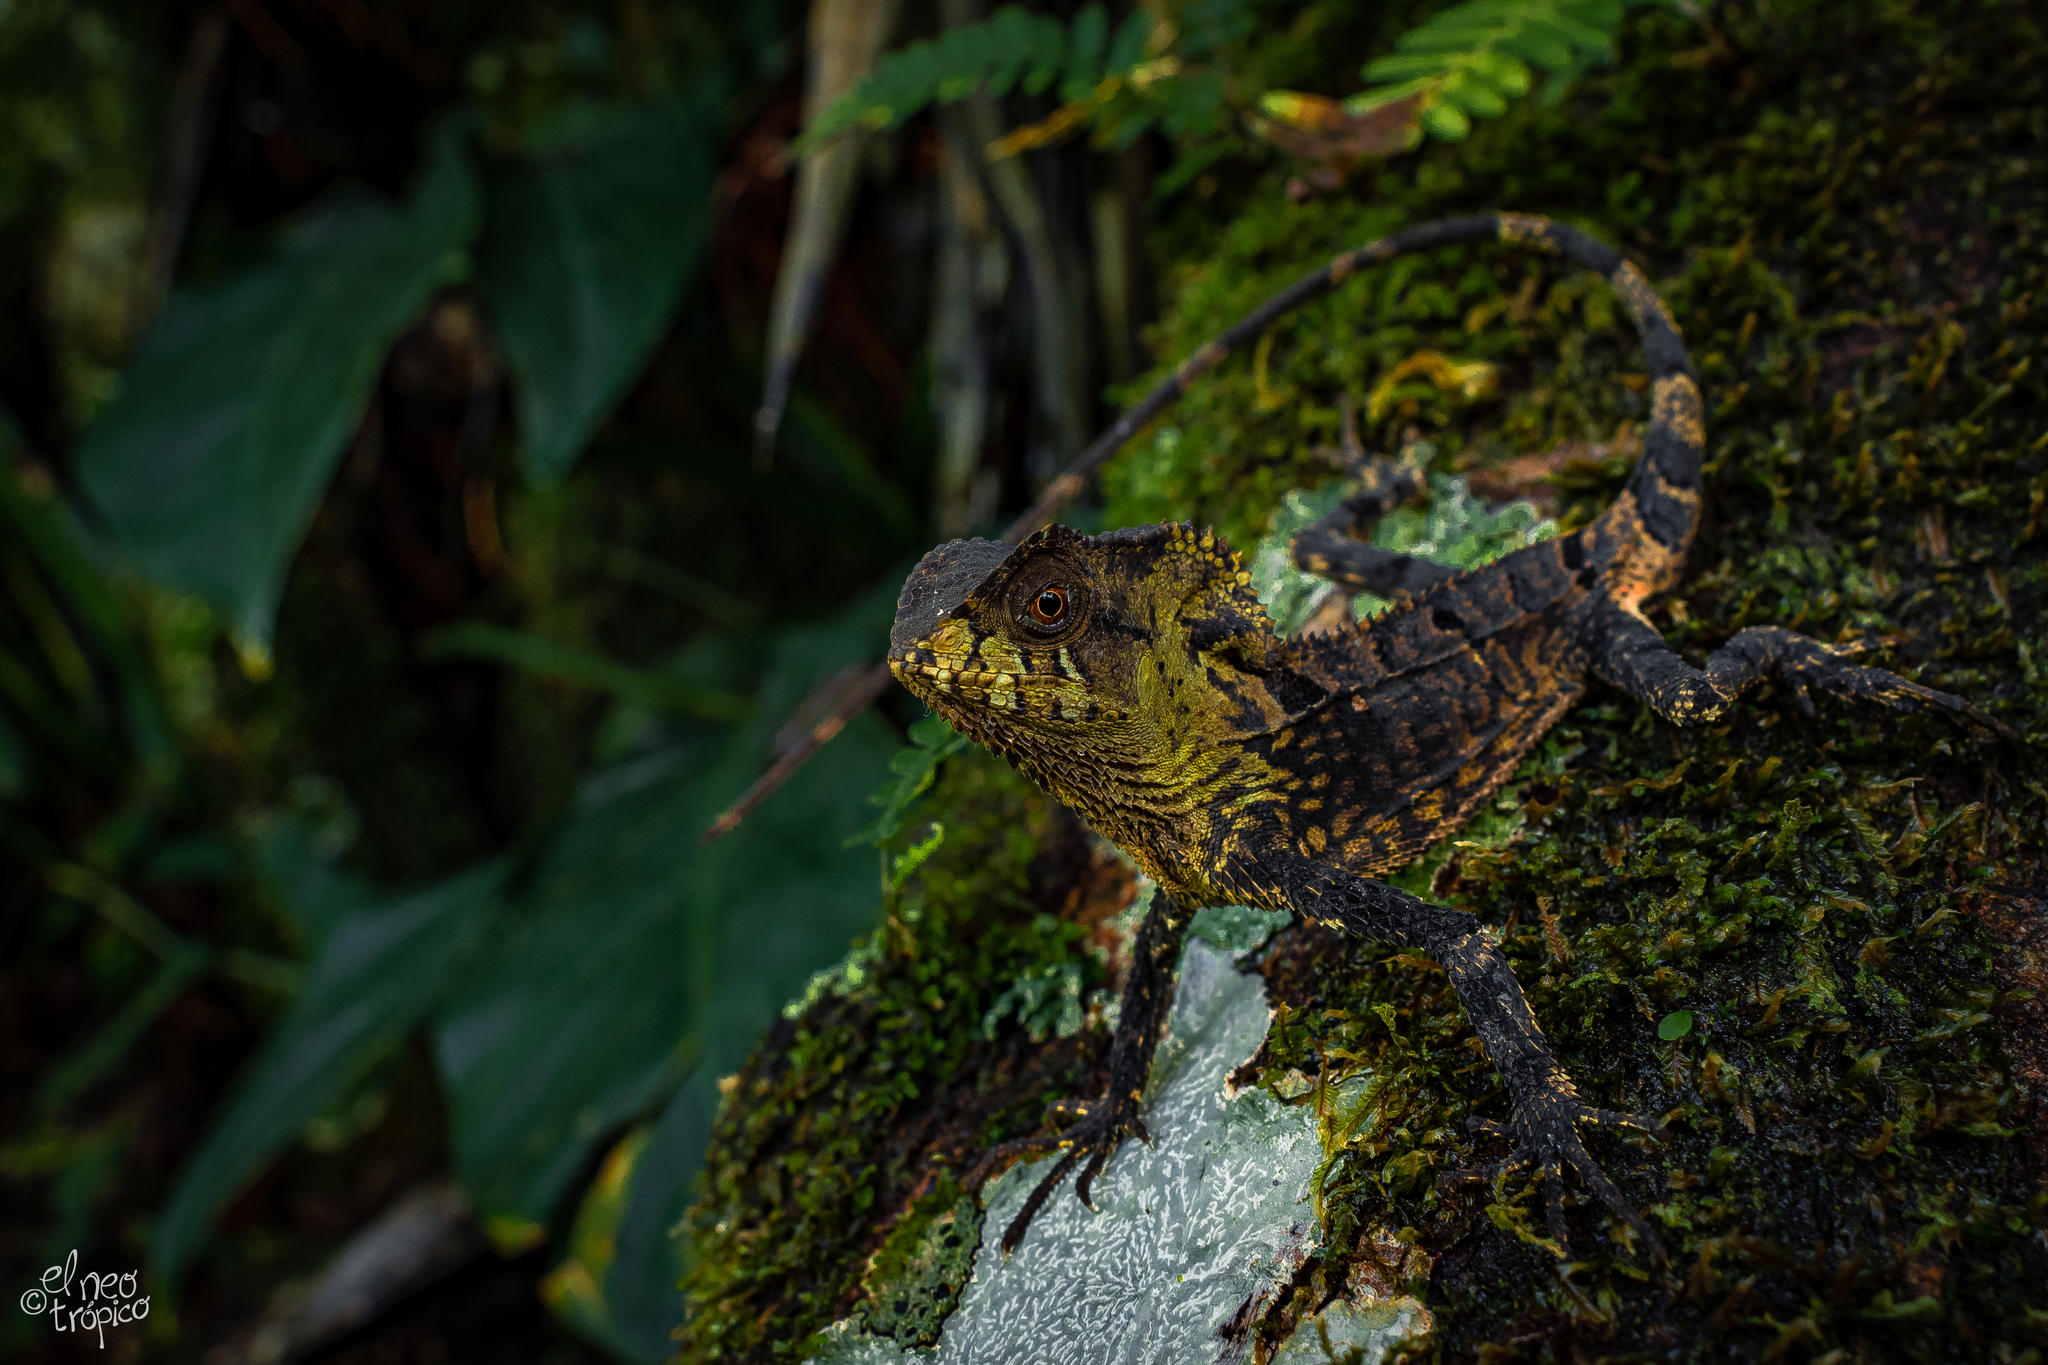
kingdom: Animalia
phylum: Chordata
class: Squamata
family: Corytophanidae
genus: Corytophanes
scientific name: Corytophanes percarinatus
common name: Keeled helmeted iguana
